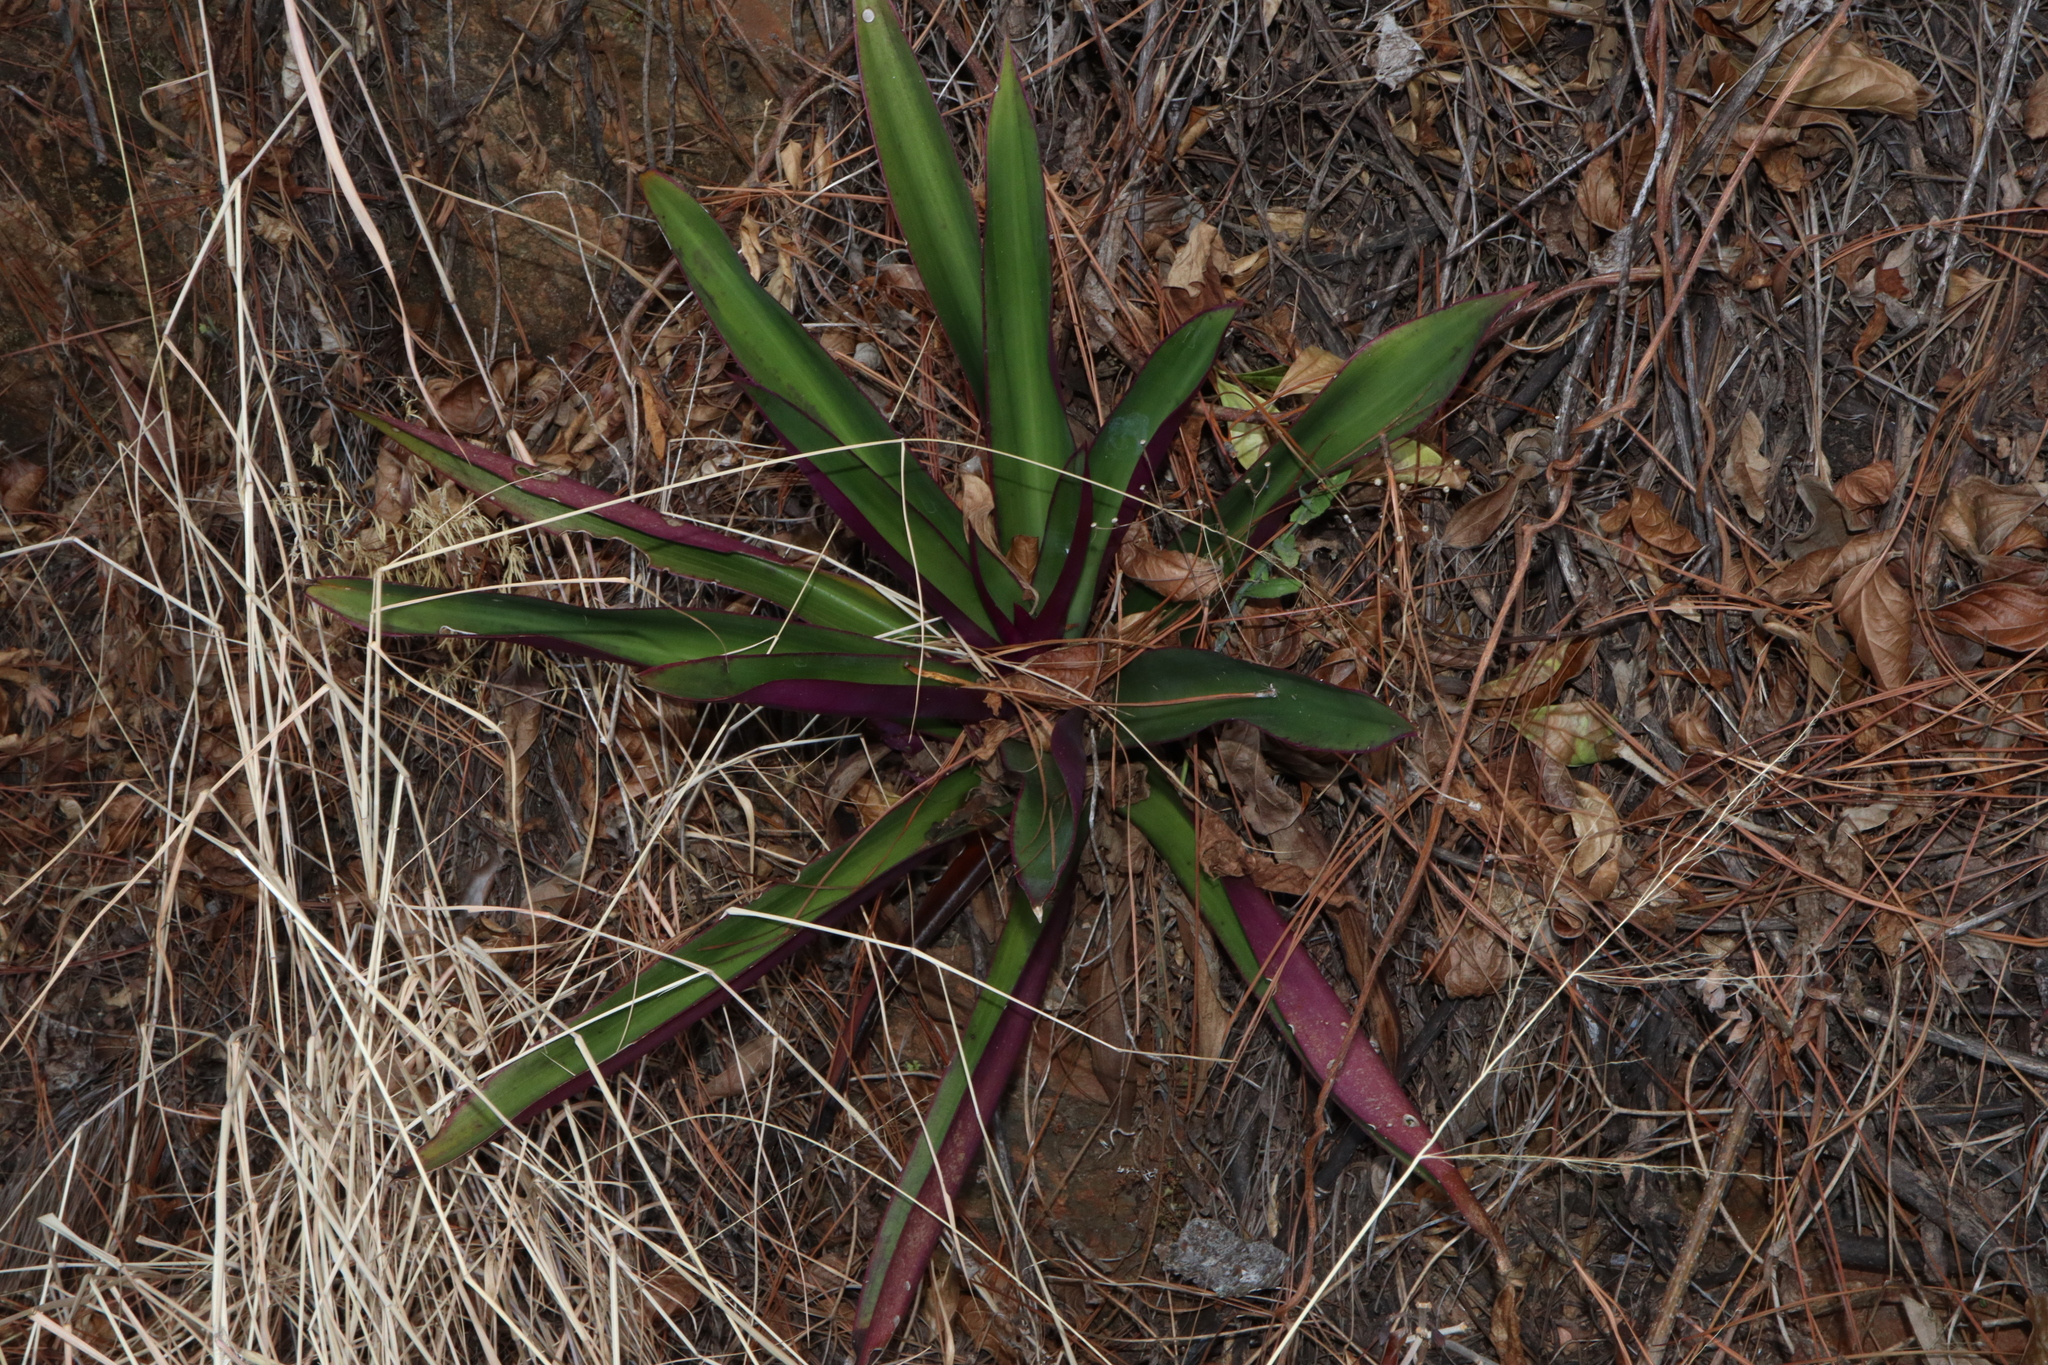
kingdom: Plantae
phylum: Tracheophyta
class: Liliopsida
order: Commelinales
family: Commelinaceae
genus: Tradescantia
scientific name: Tradescantia spathacea
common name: Boatlily
